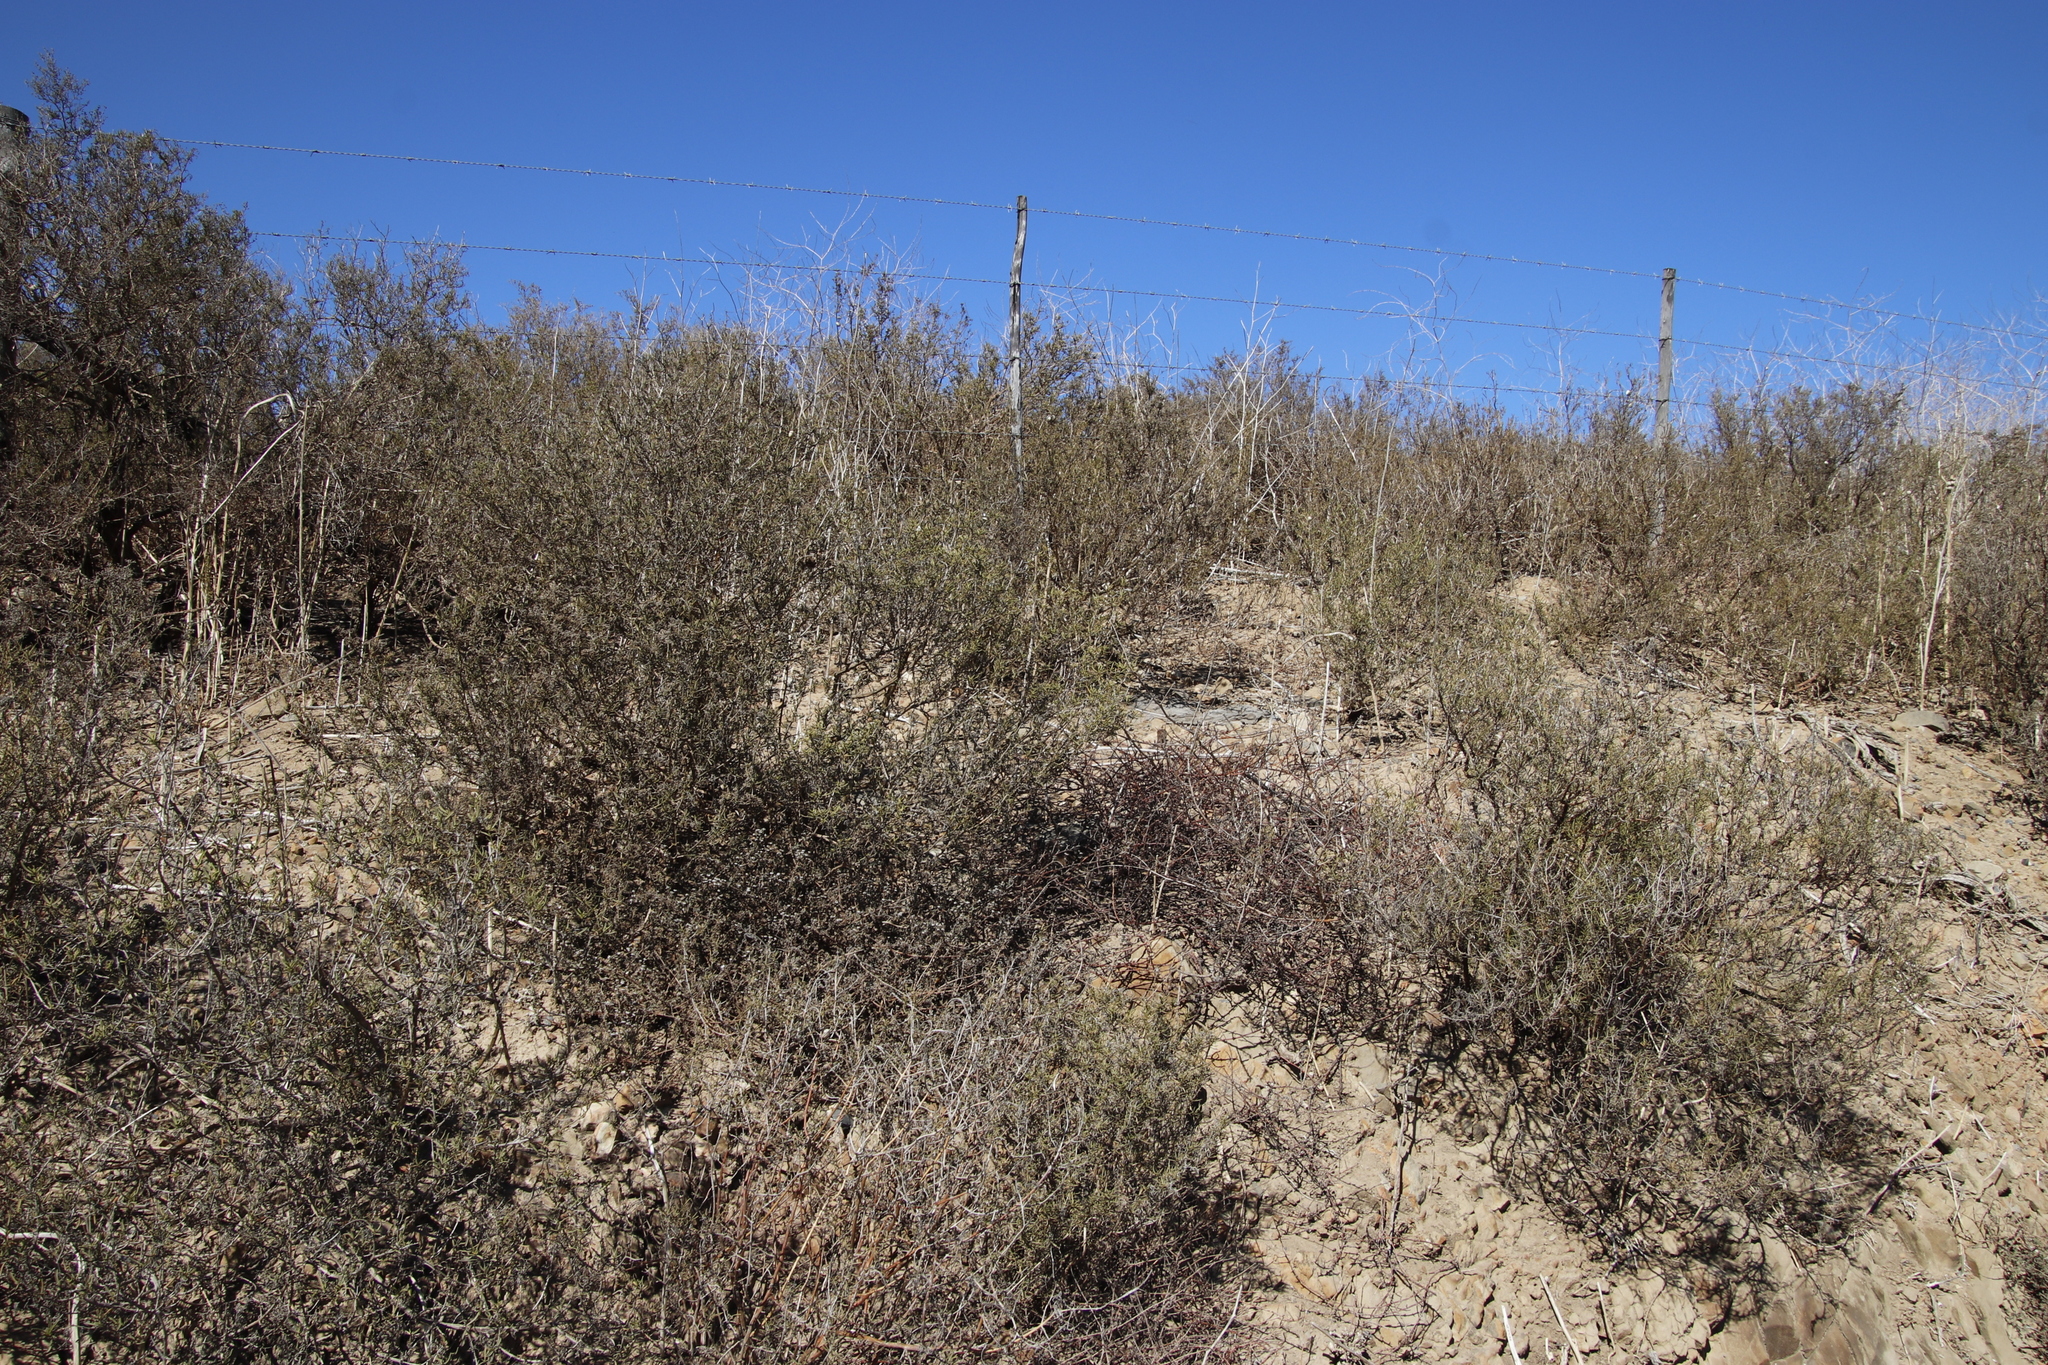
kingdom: Plantae
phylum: Tracheophyta
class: Magnoliopsida
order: Caryophyllales
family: Aizoaceae
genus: Aizoon
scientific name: Aizoon africanum
